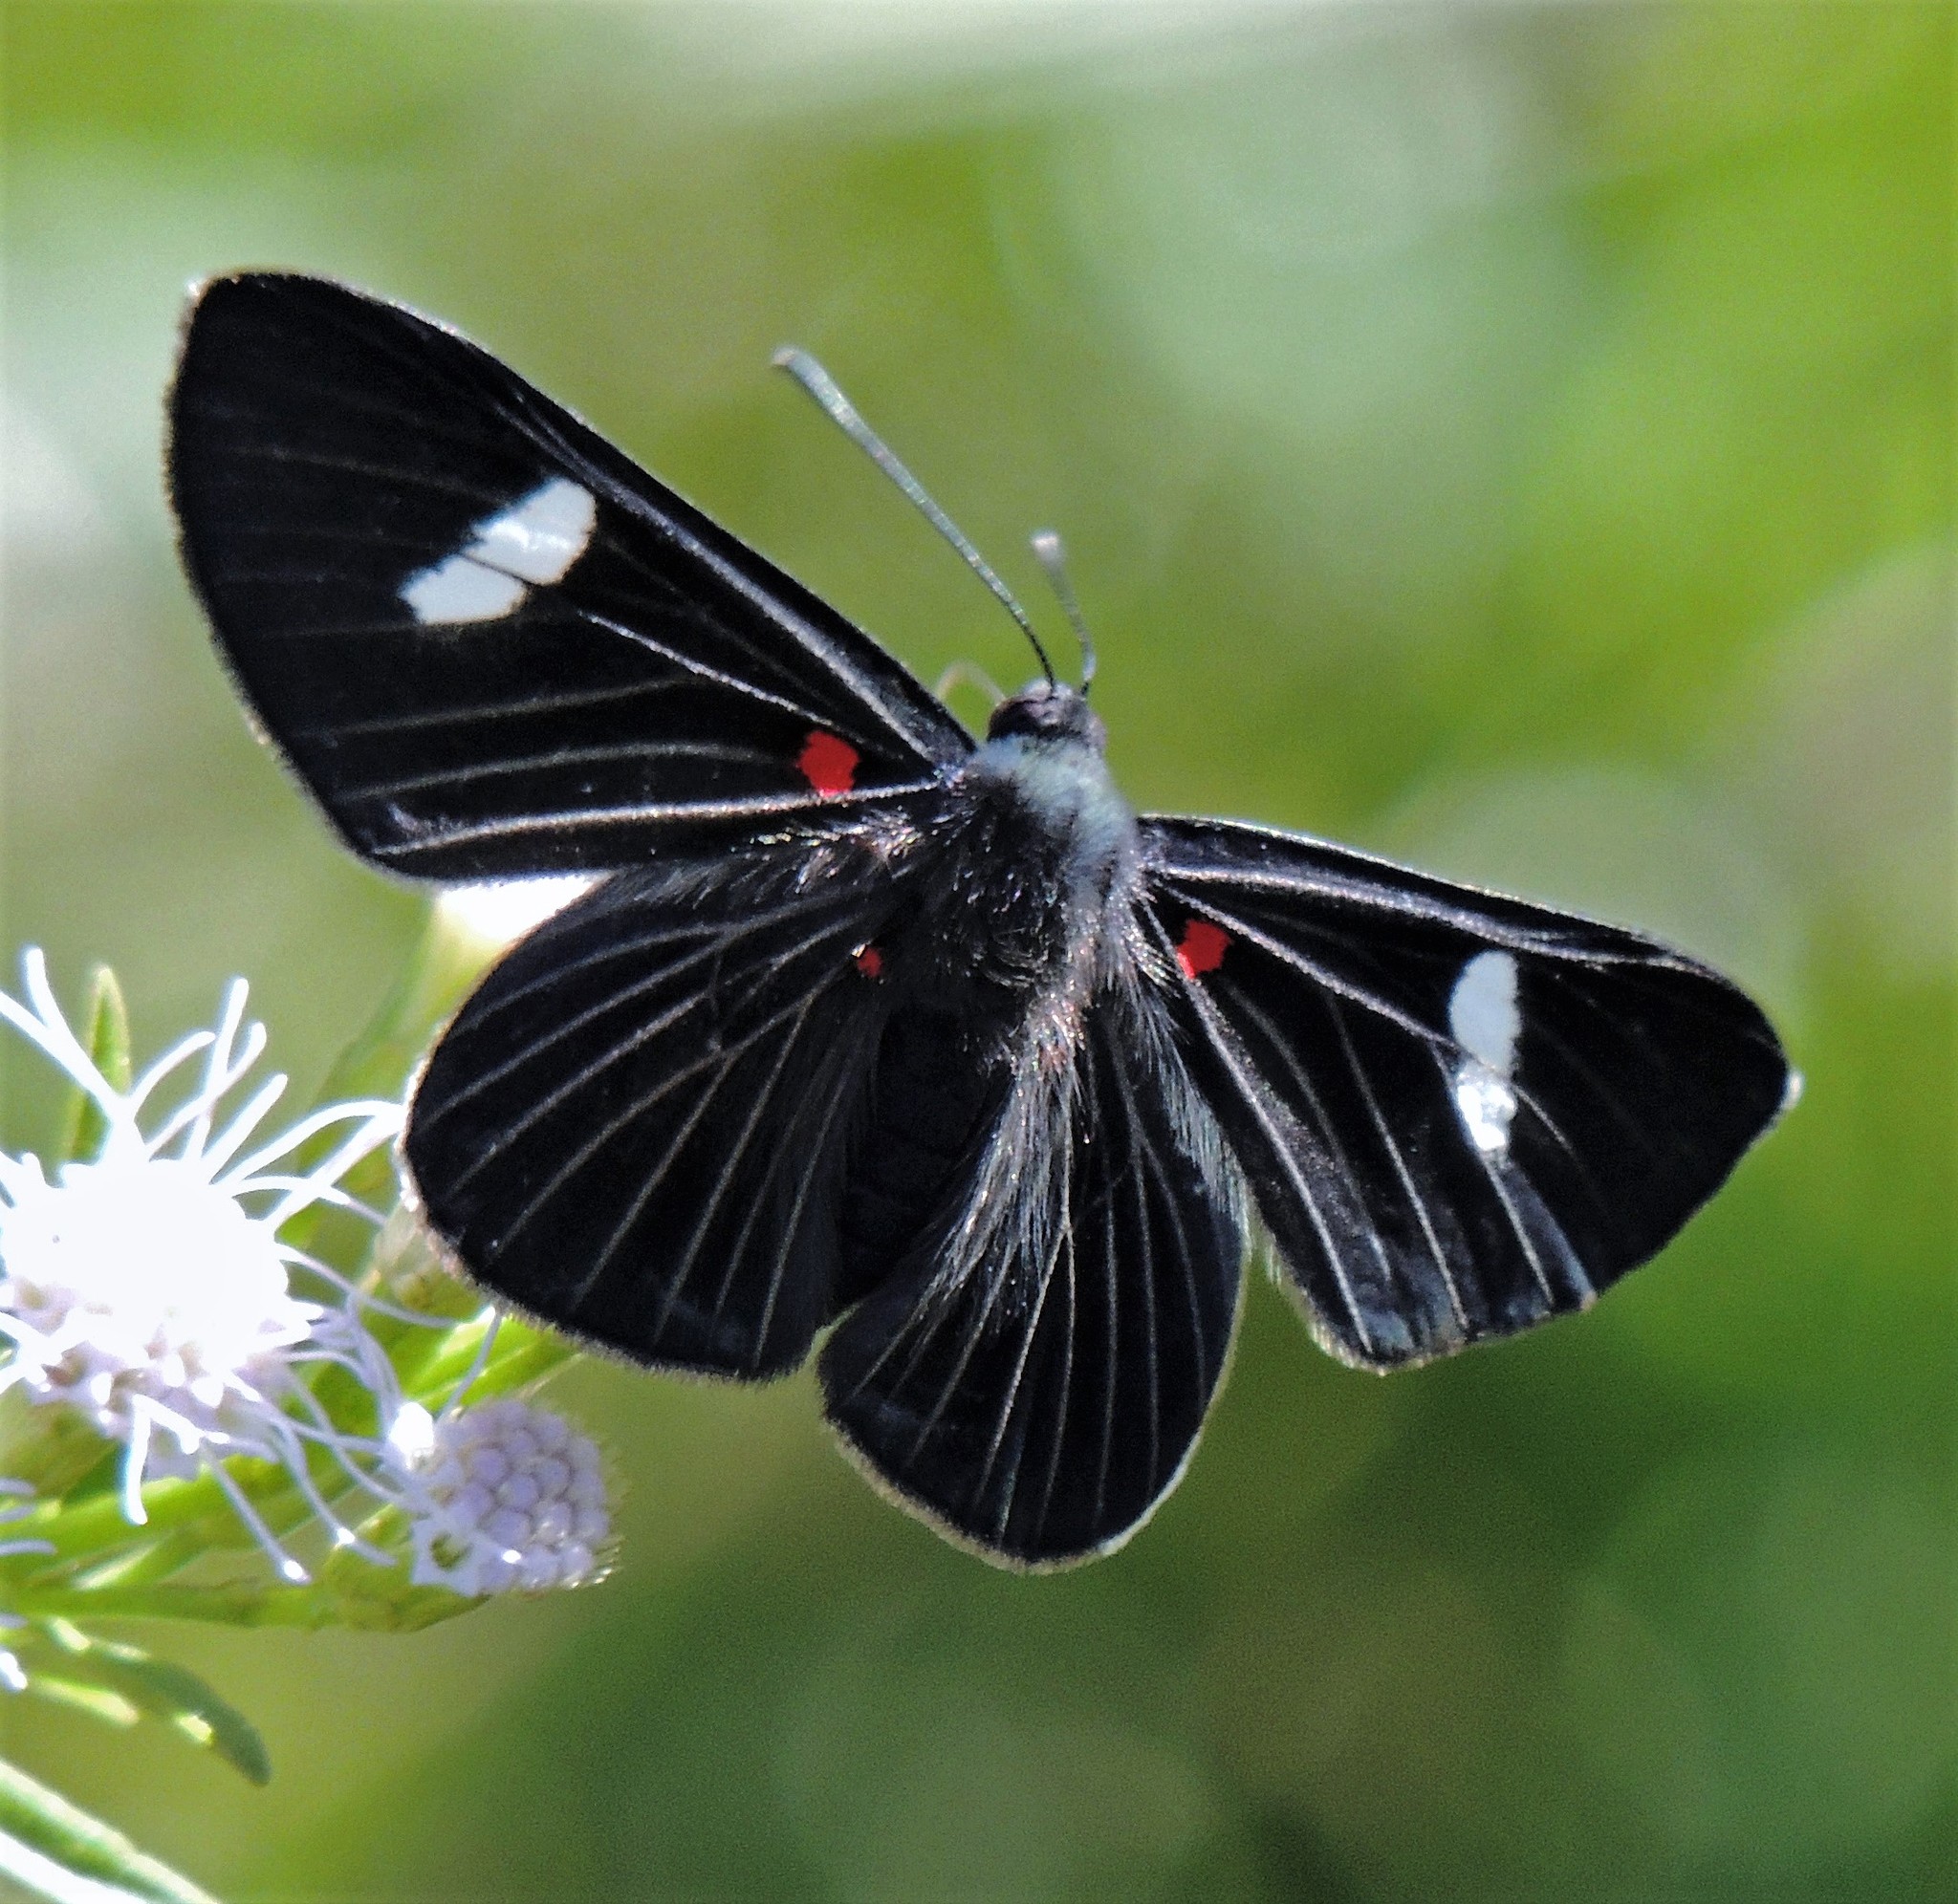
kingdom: Animalia
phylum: Arthropoda
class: Insecta
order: Lepidoptera
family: Lycaenidae
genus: Melanis
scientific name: Melanis aegates
